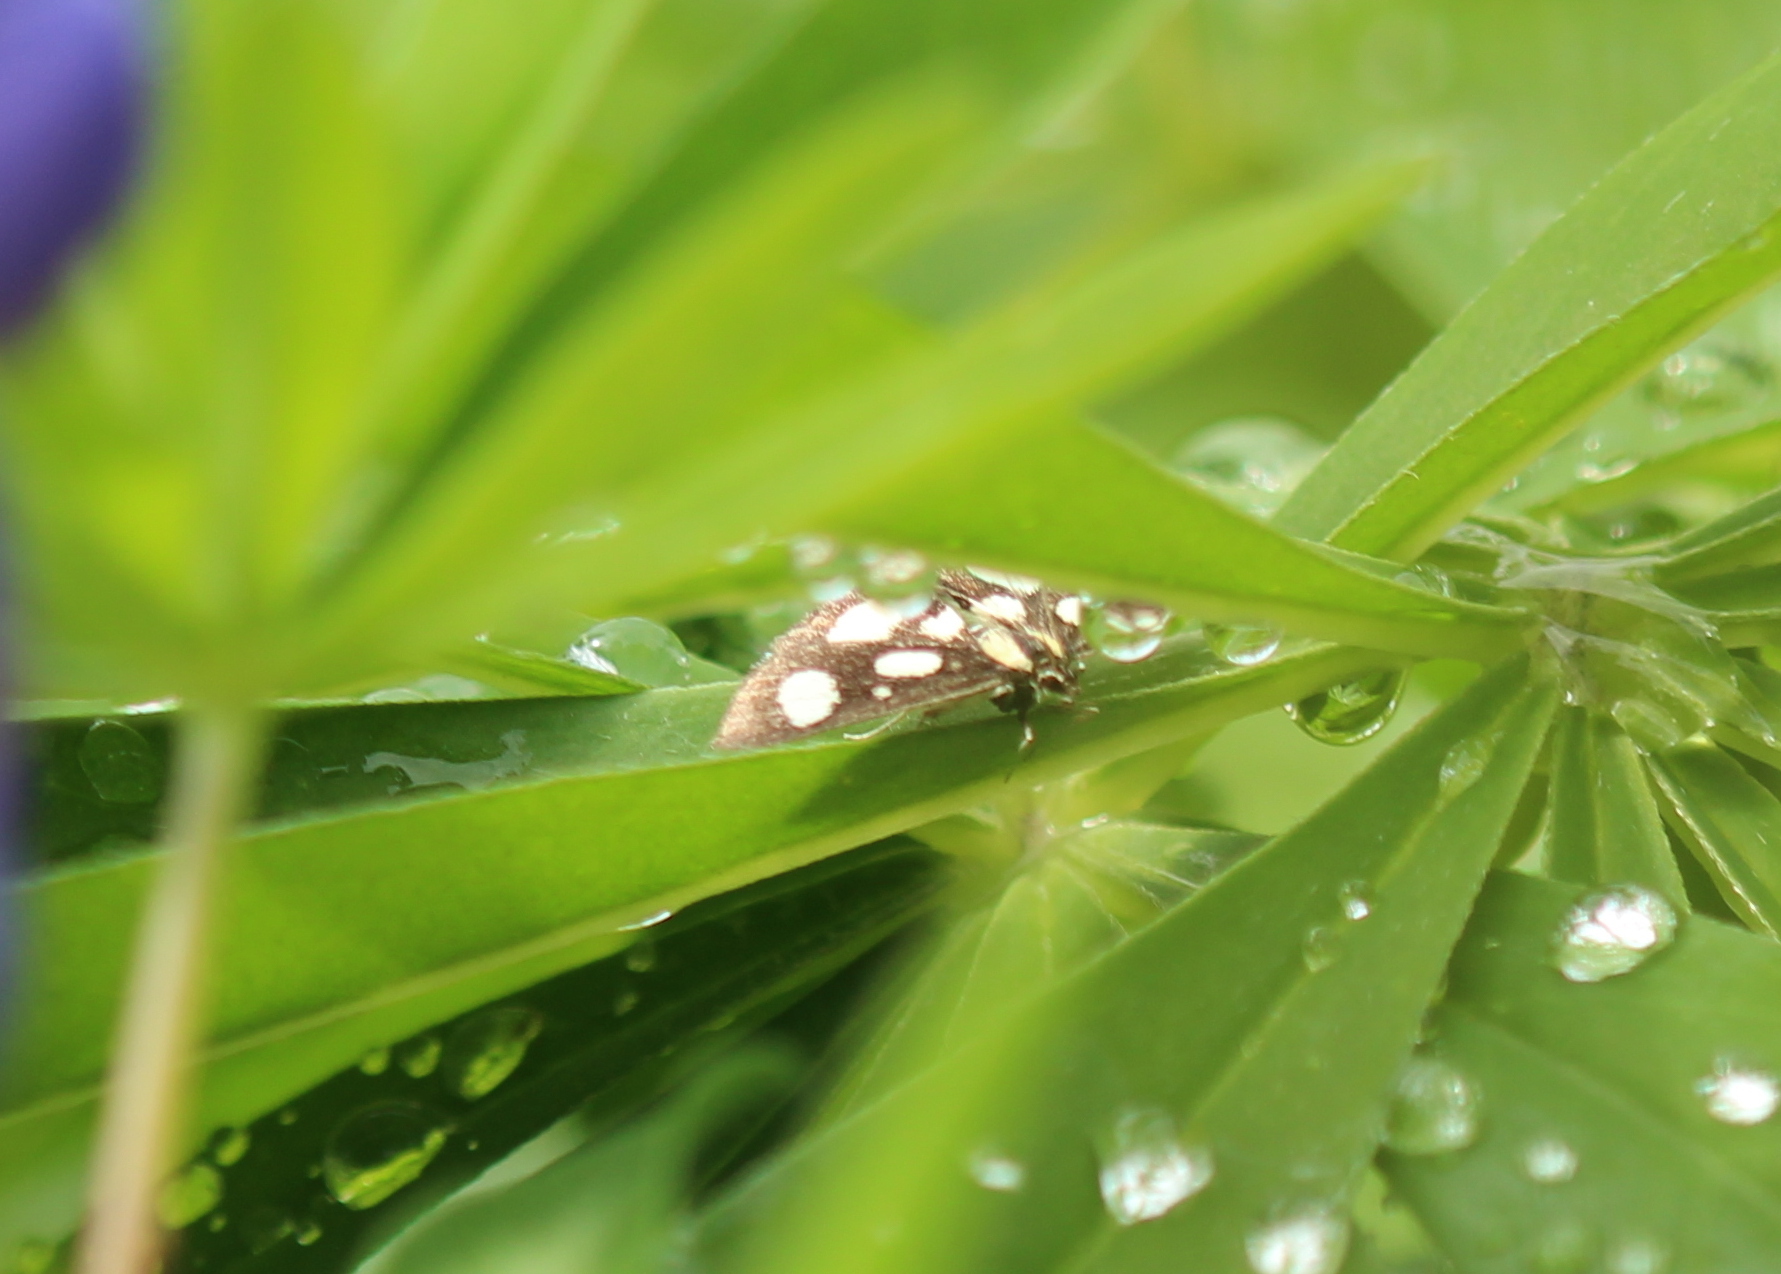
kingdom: Animalia
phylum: Arthropoda
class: Insecta
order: Lepidoptera
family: Crambidae
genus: Anania
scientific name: Anania funebris
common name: White-spotted sable moth
